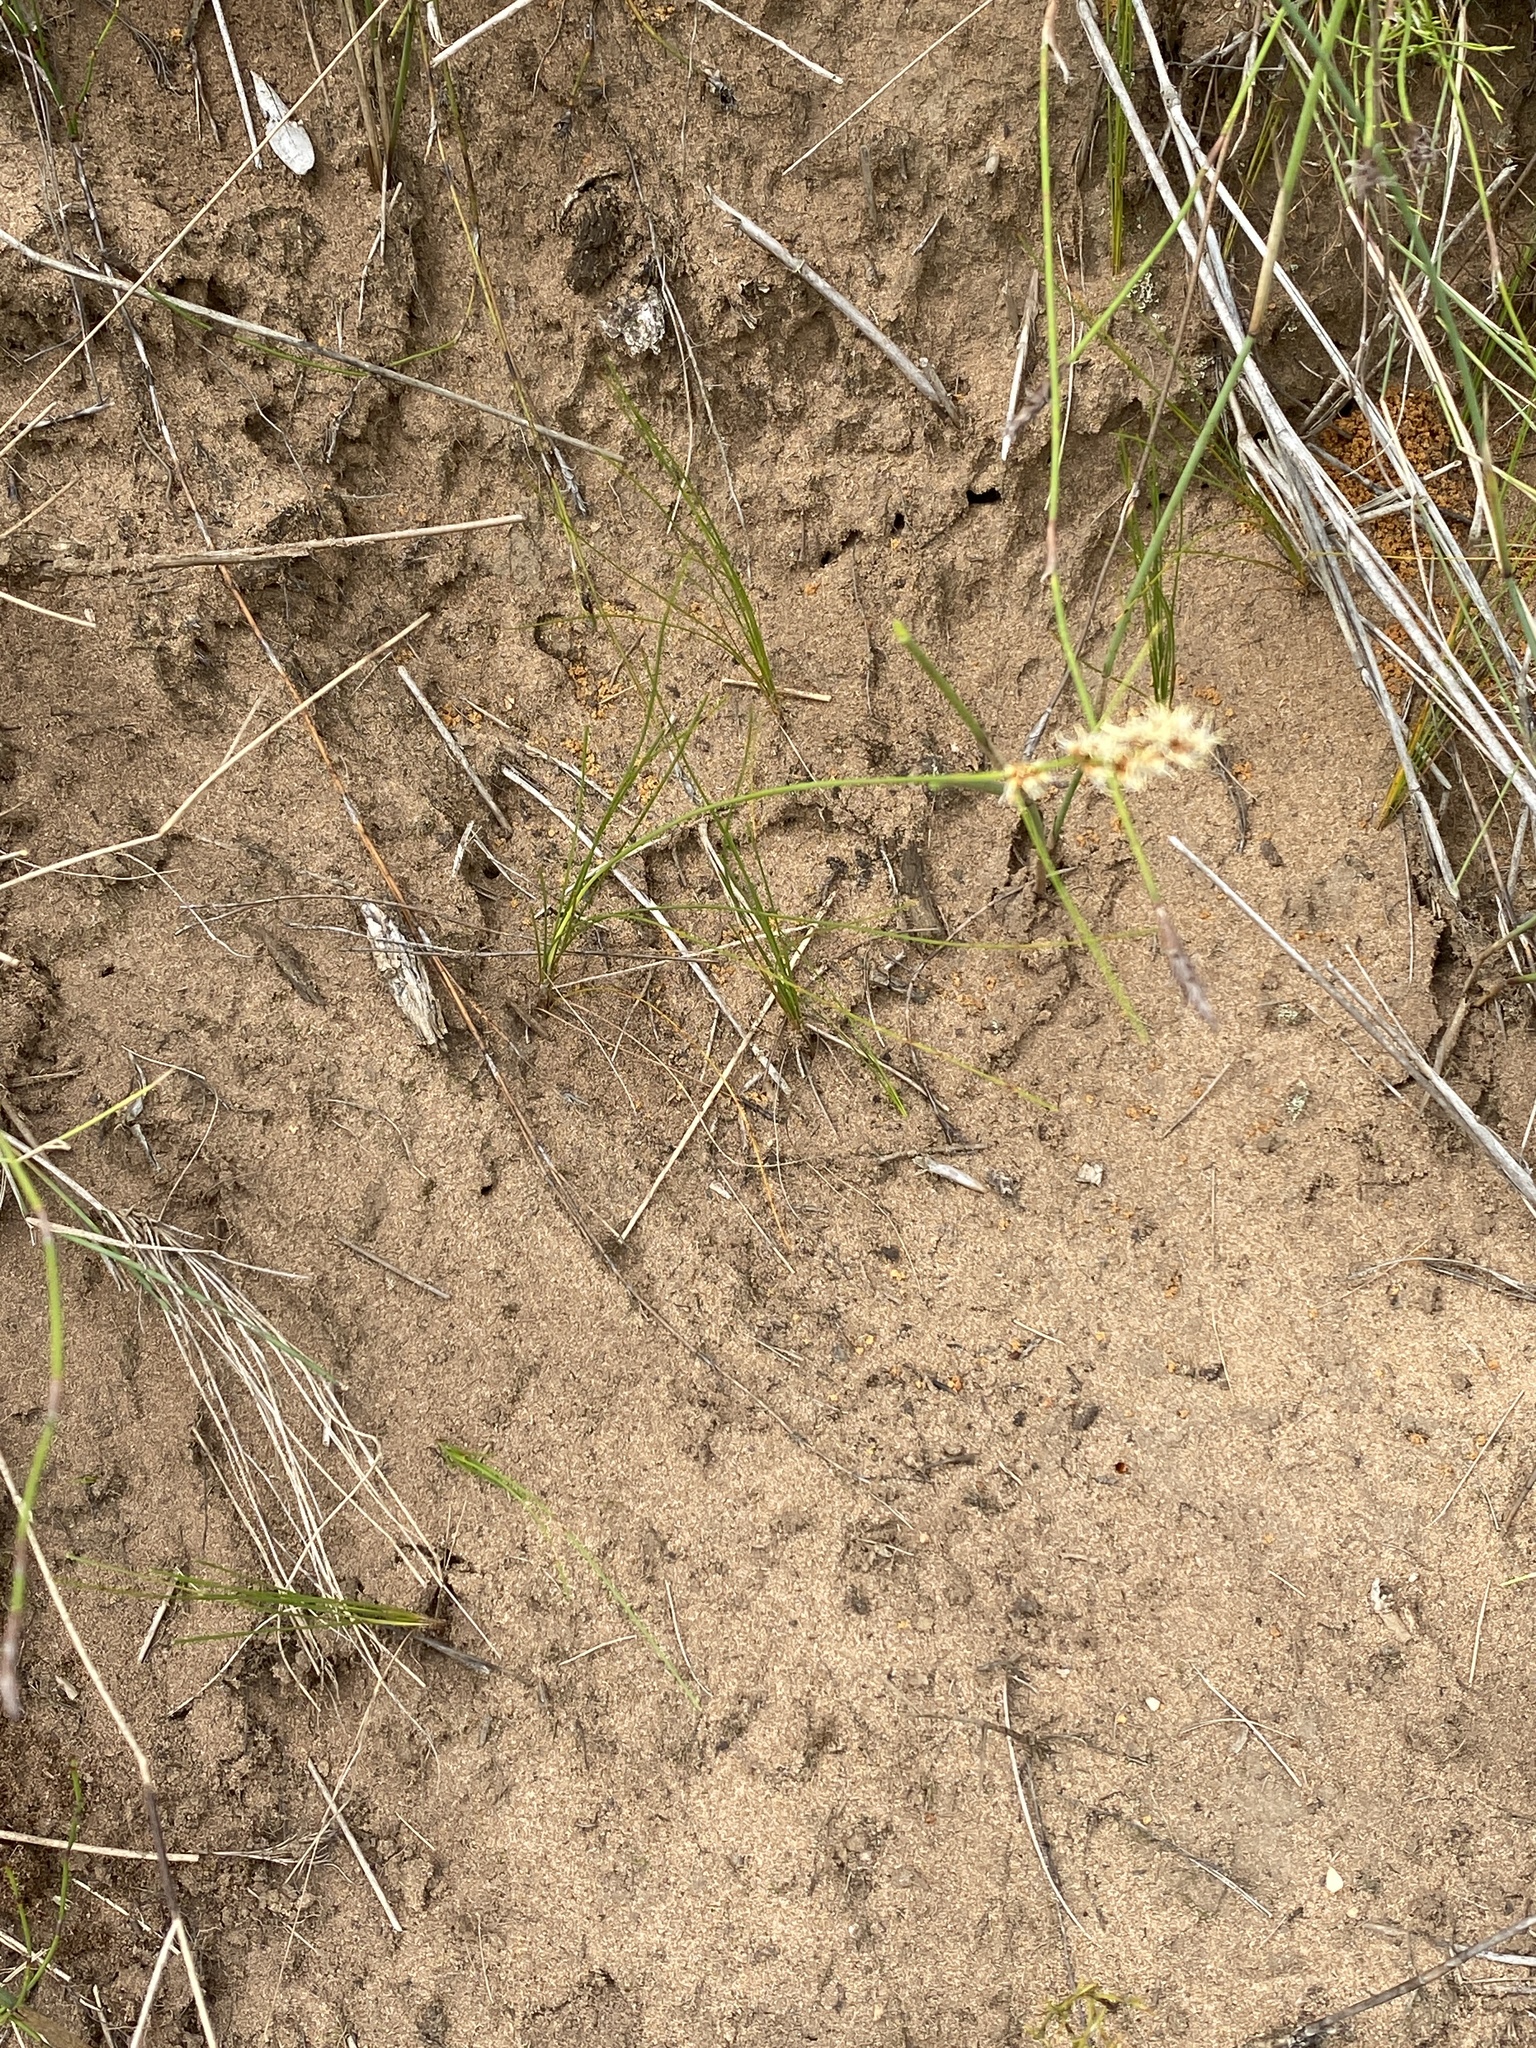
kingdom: Plantae
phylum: Tracheophyta
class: Liliopsida
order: Poales
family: Cyperaceae
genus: Ficinia
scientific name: Ficinia bulbosa
